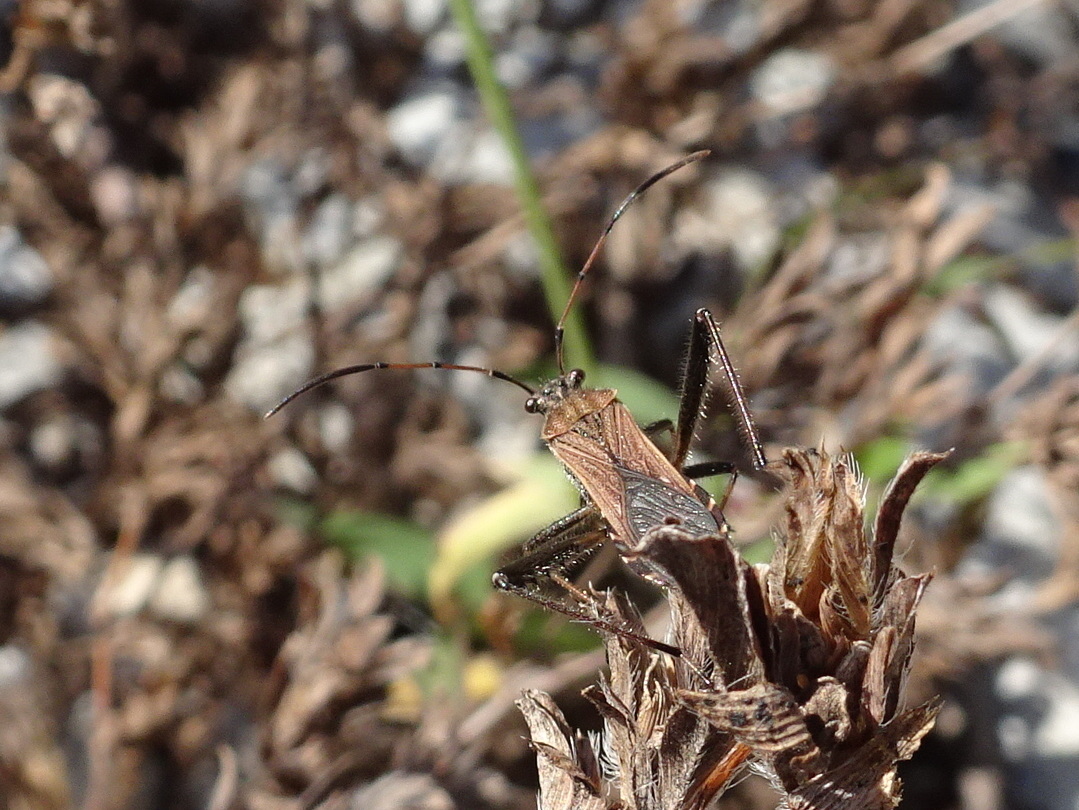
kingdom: Animalia
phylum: Arthropoda
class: Insecta
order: Hemiptera
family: Alydidae
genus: Alydus
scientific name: Alydus pilosulus
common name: Broad-headed bug
